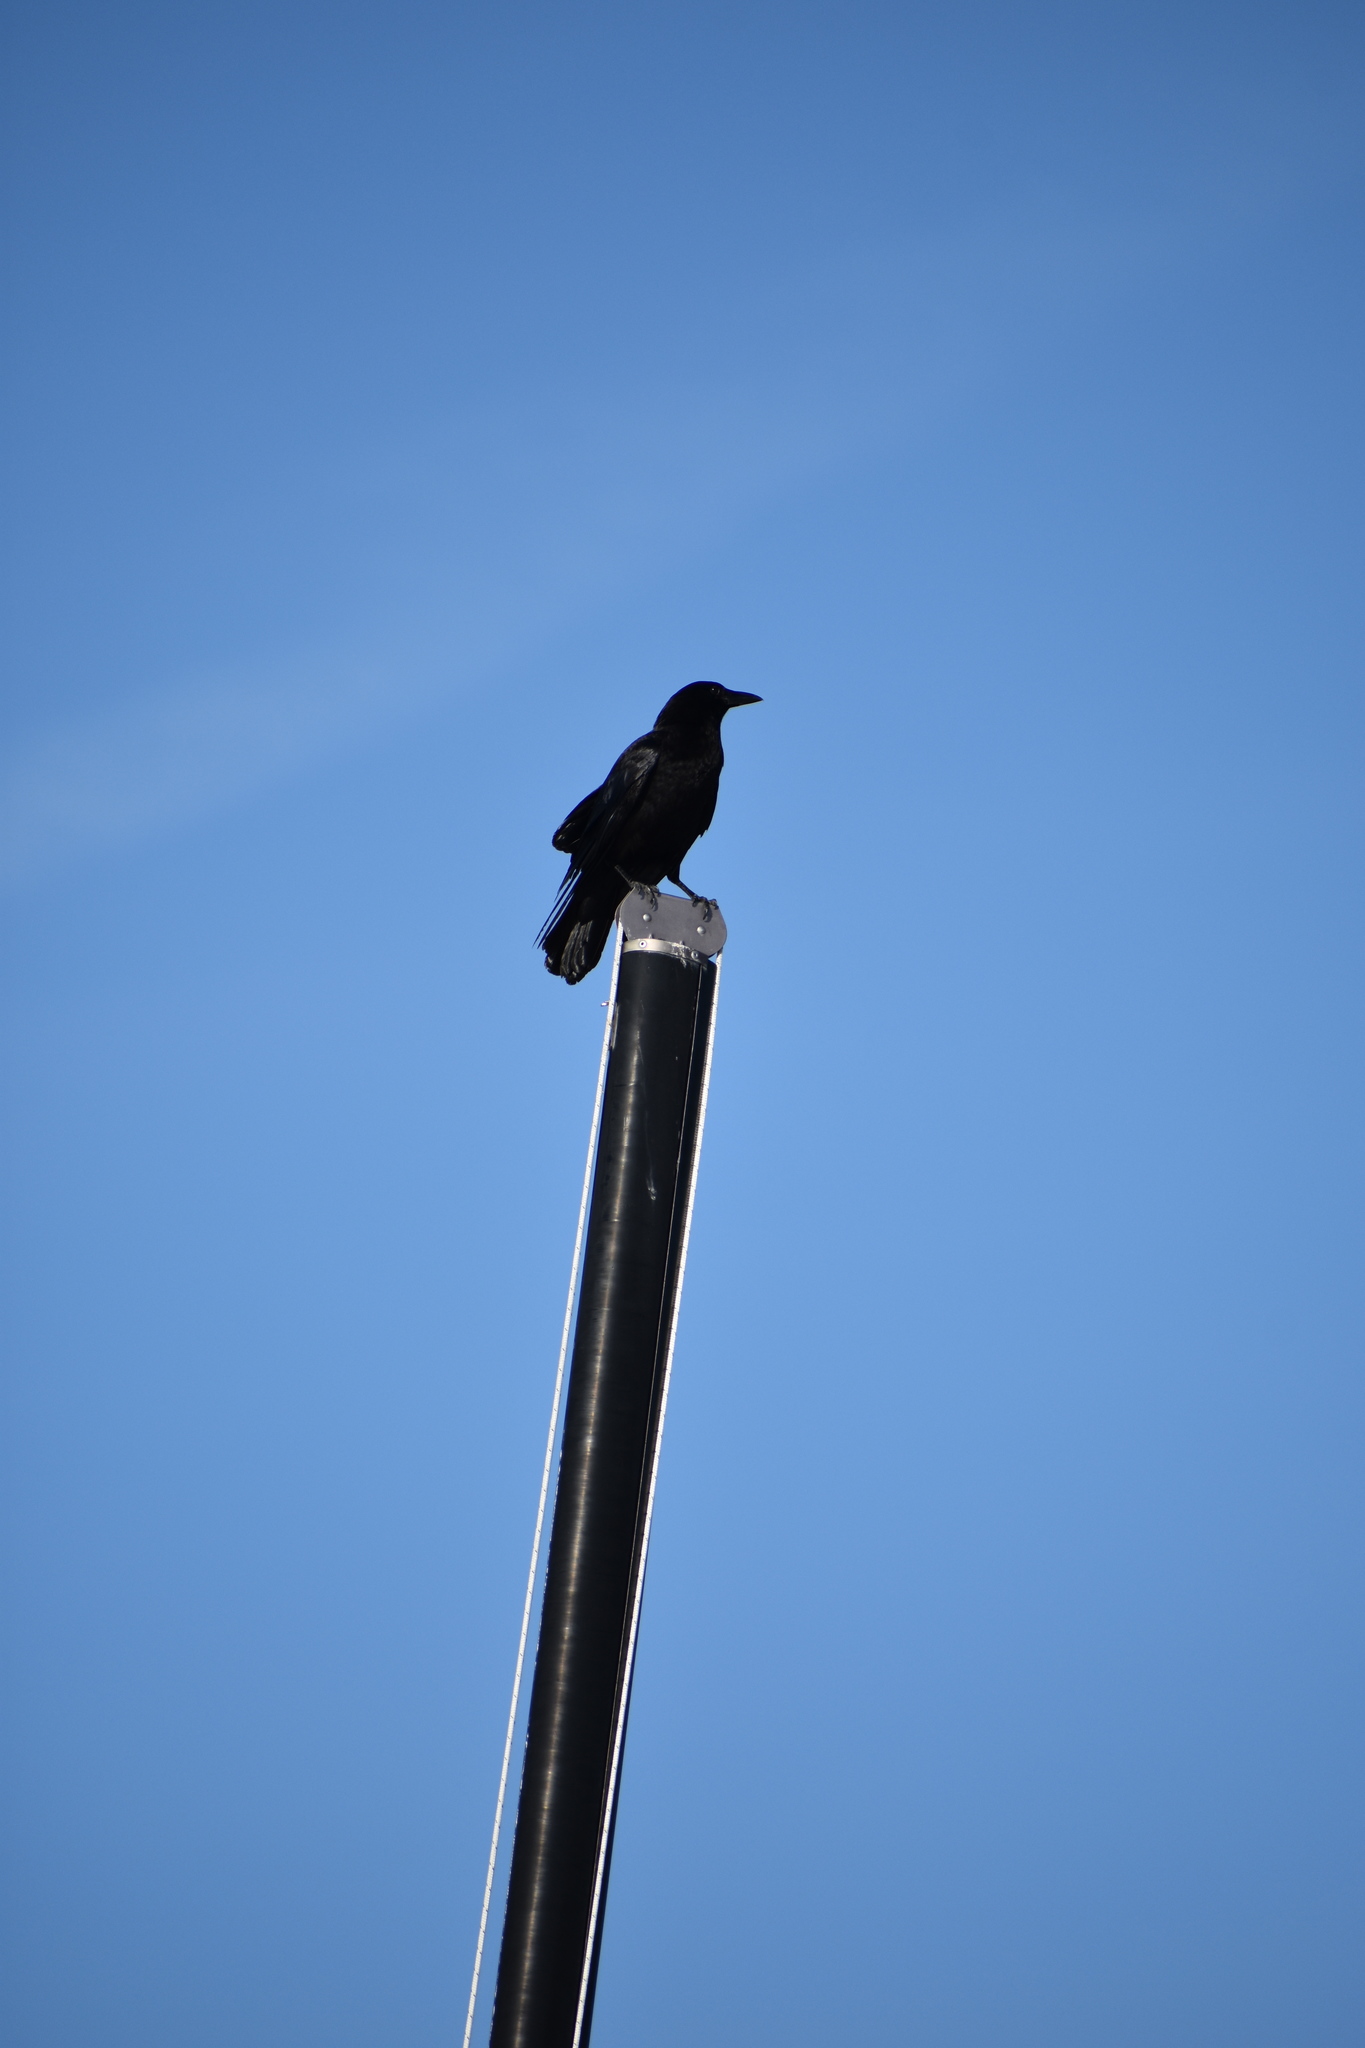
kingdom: Animalia
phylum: Chordata
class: Aves
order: Passeriformes
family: Corvidae
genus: Corvus
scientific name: Corvus brachyrhynchos
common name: American crow
